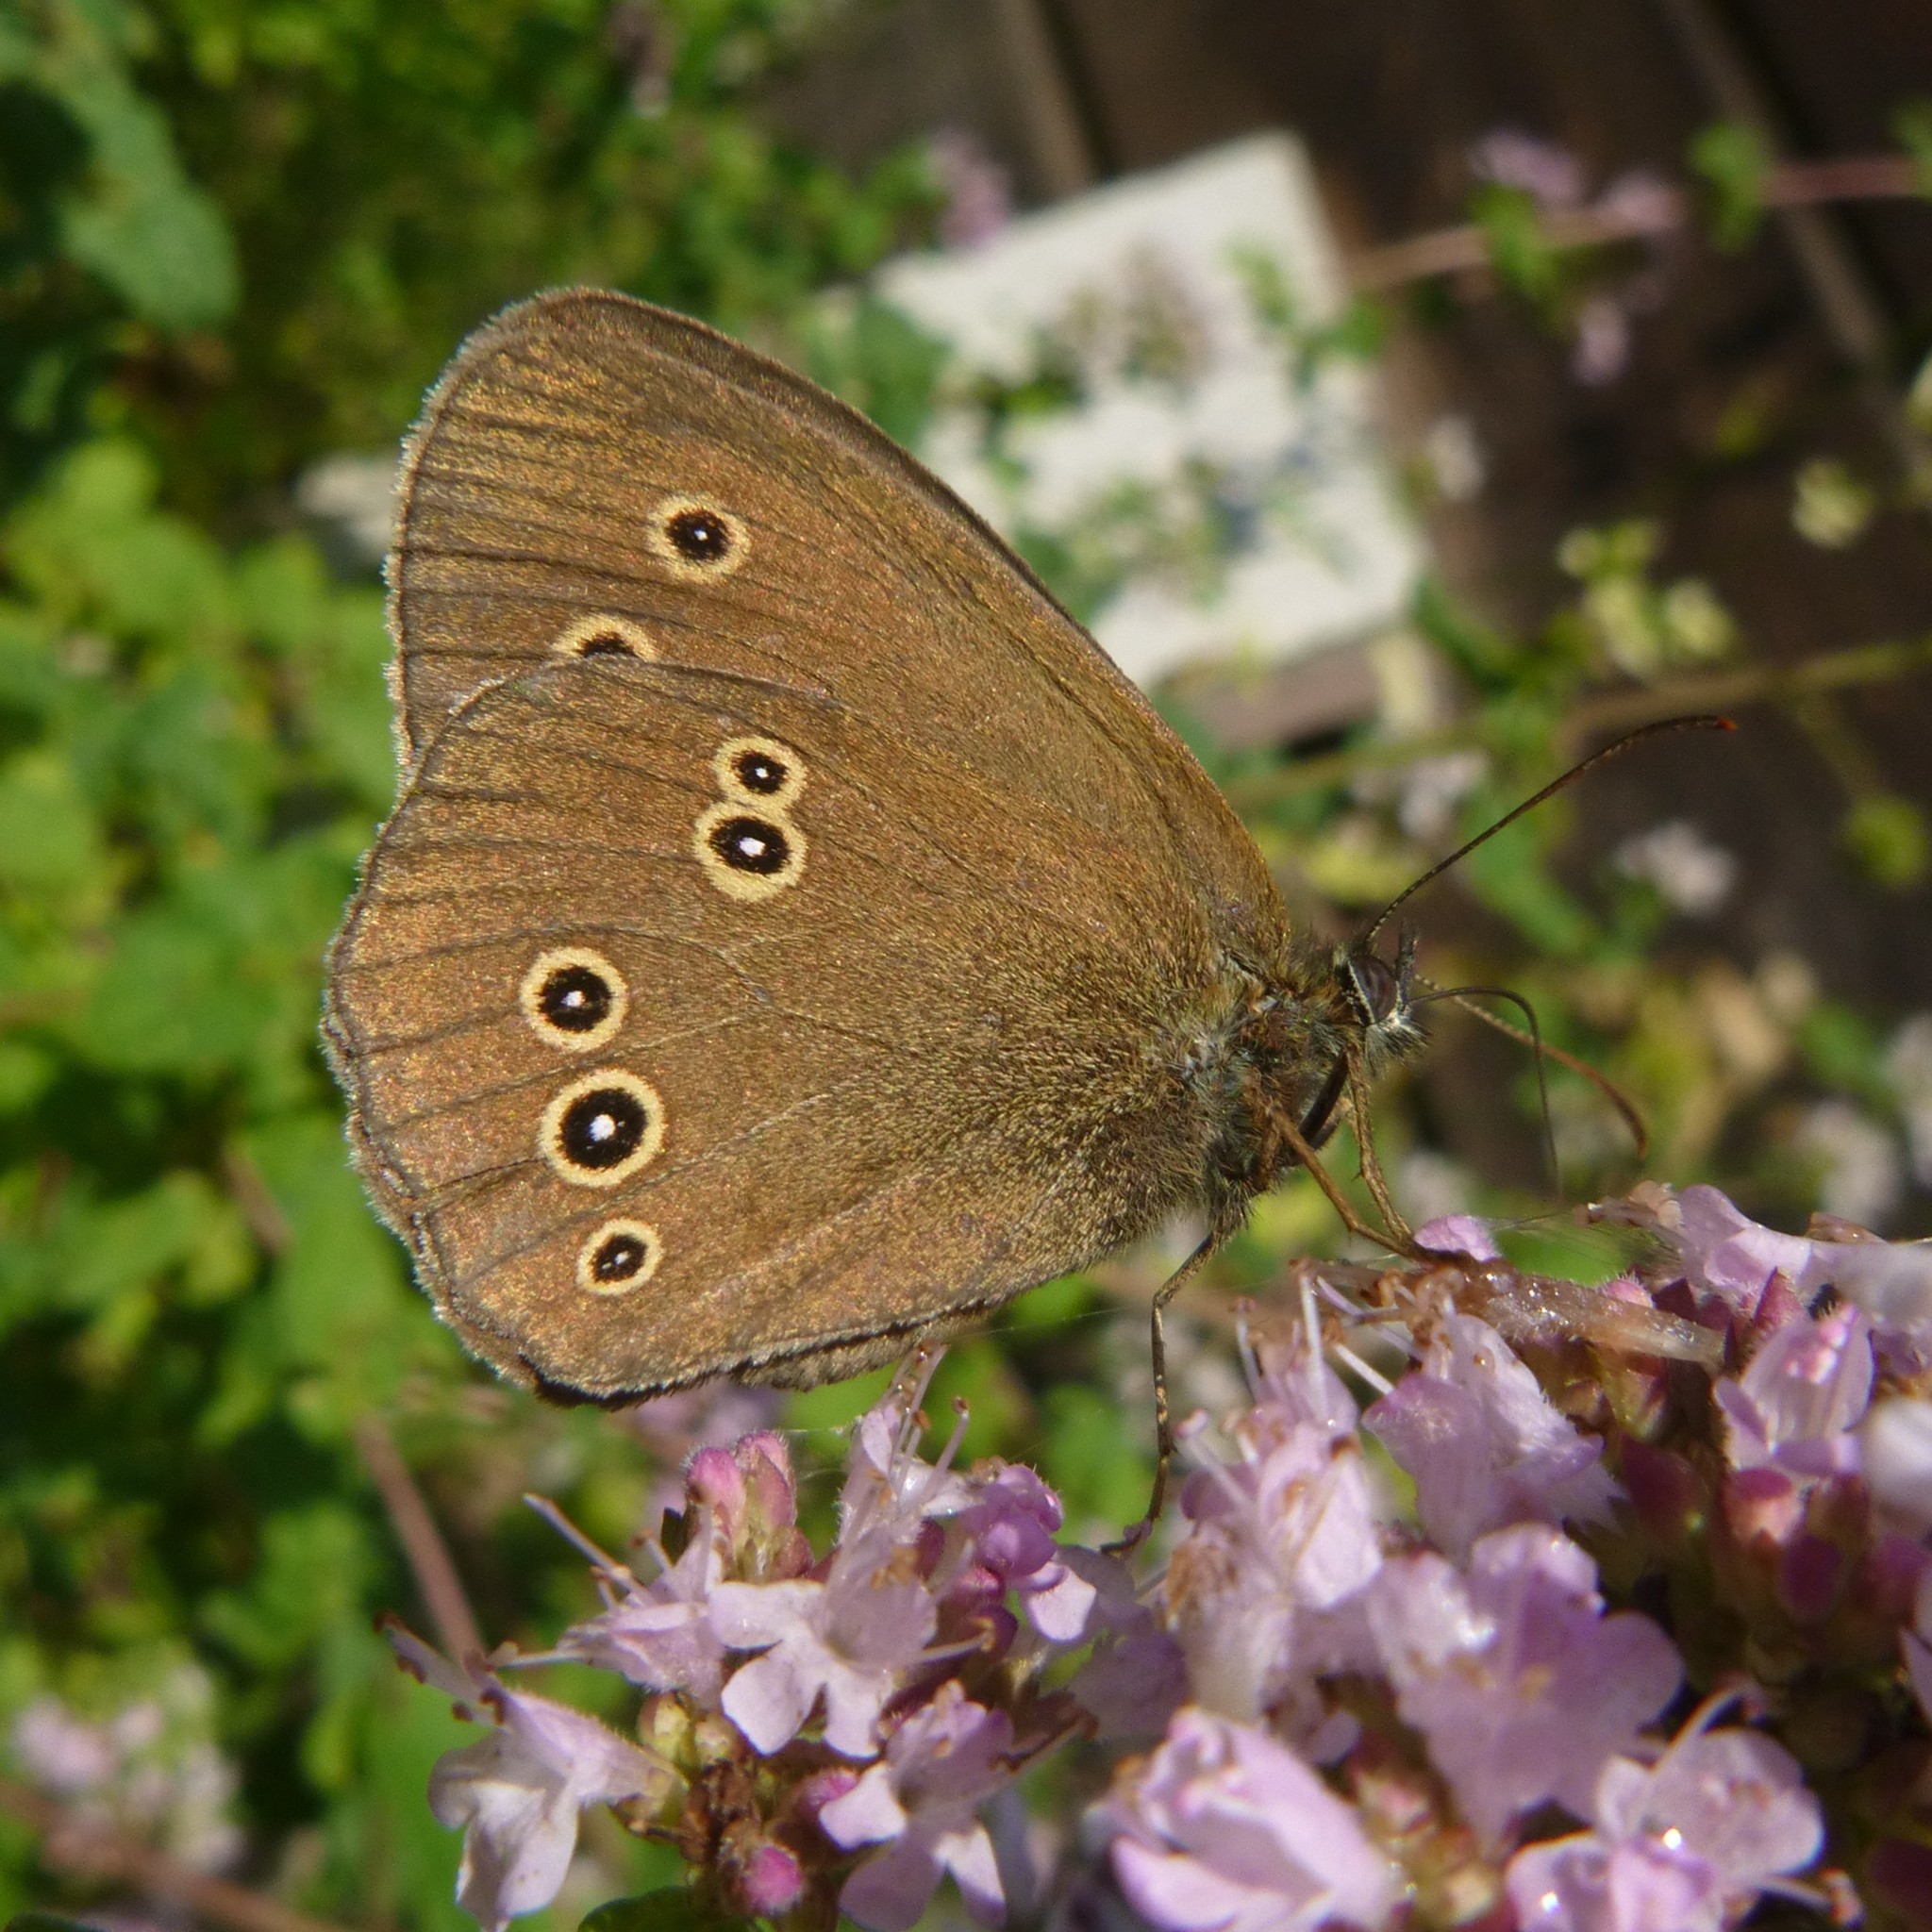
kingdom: Animalia
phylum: Arthropoda
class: Insecta
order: Lepidoptera
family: Nymphalidae
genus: Aphantopus
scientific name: Aphantopus hyperantus
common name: Ringlet
